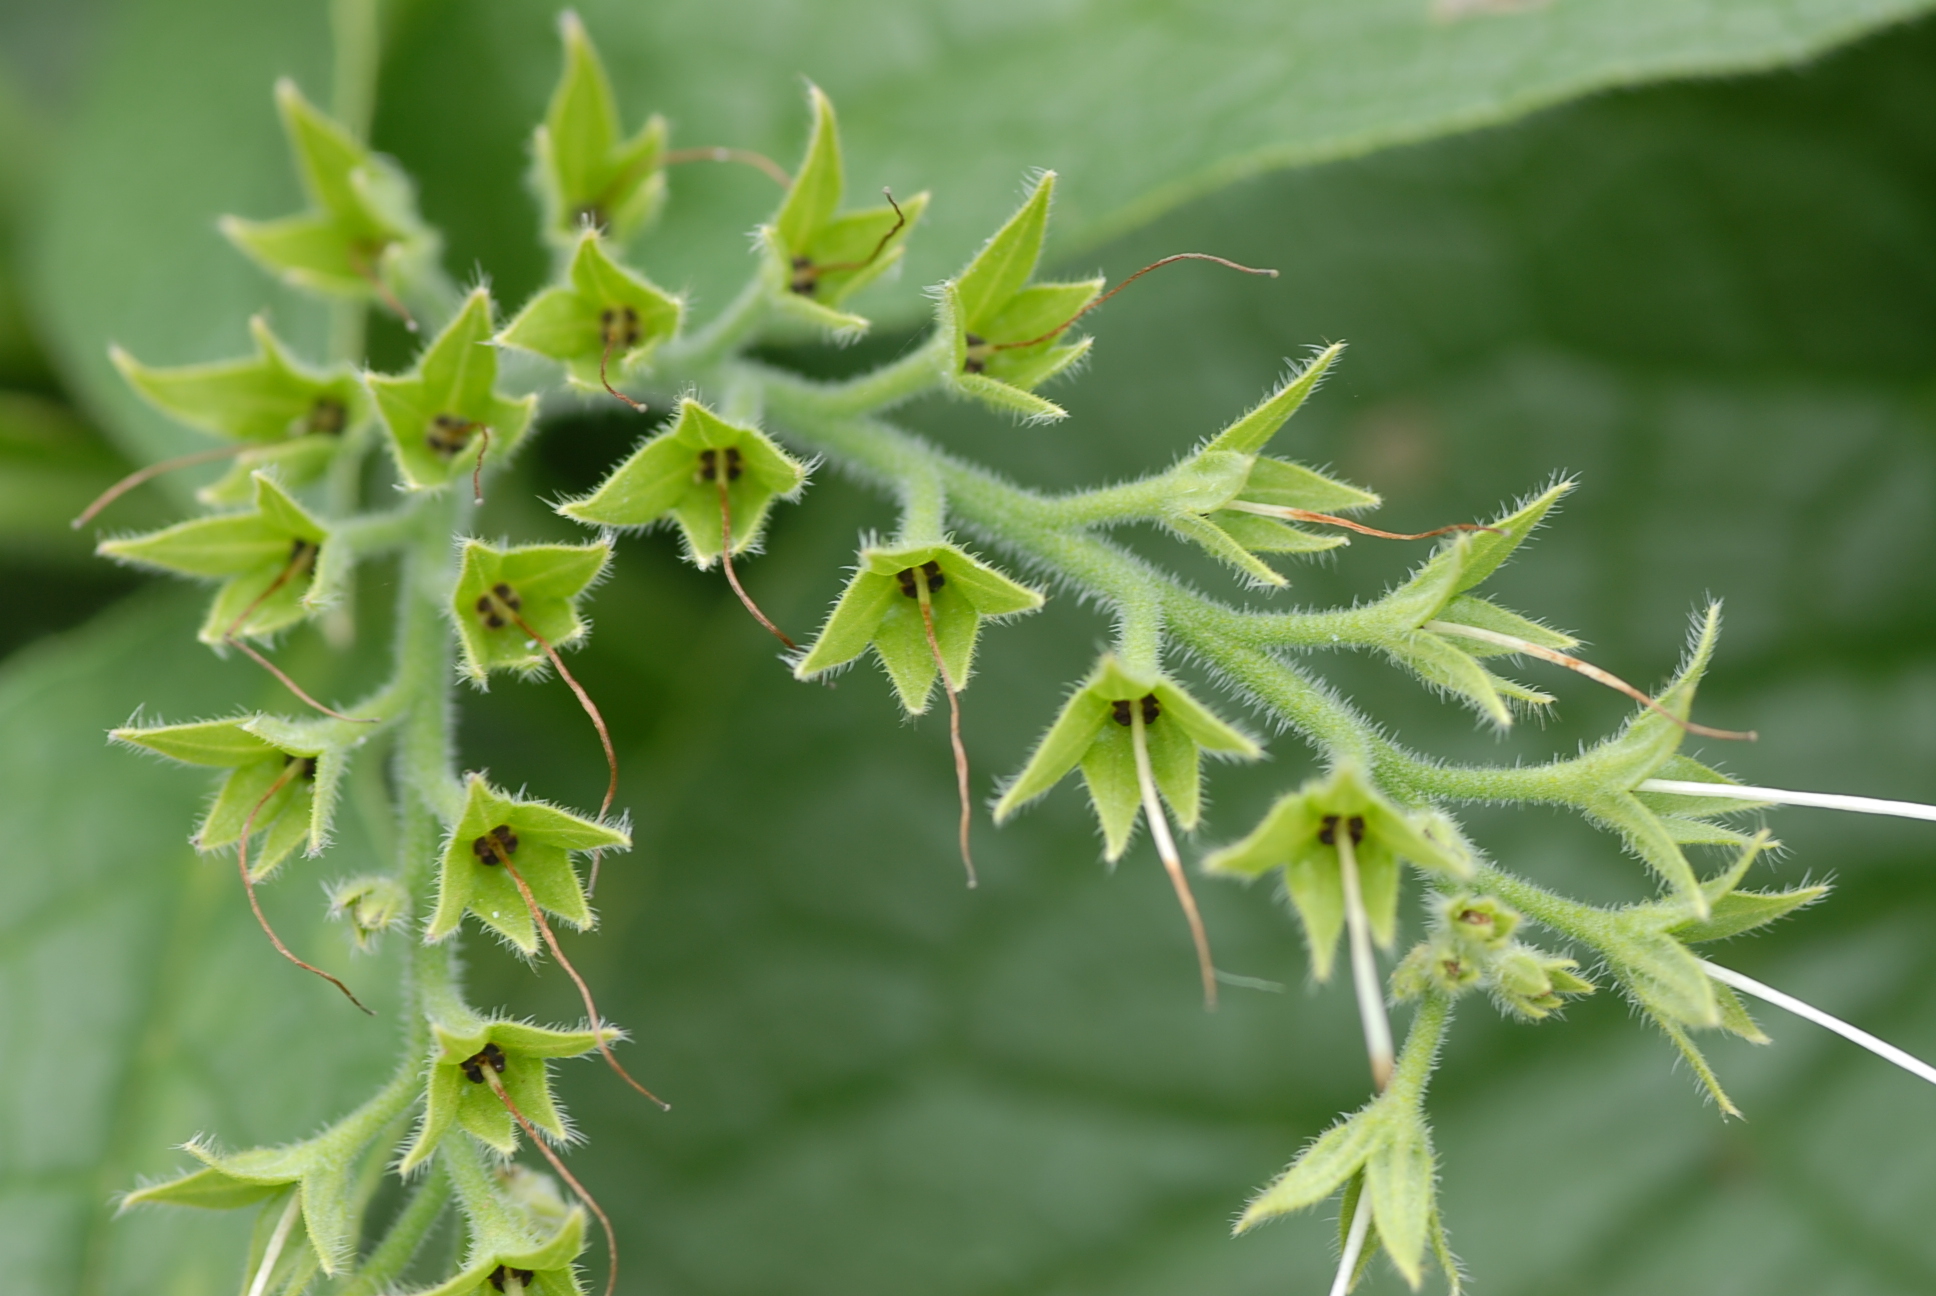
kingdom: Plantae
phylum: Tracheophyta
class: Magnoliopsida
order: Boraginales
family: Boraginaceae
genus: Symphytum
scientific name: Symphytum officinale
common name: Common comfrey
